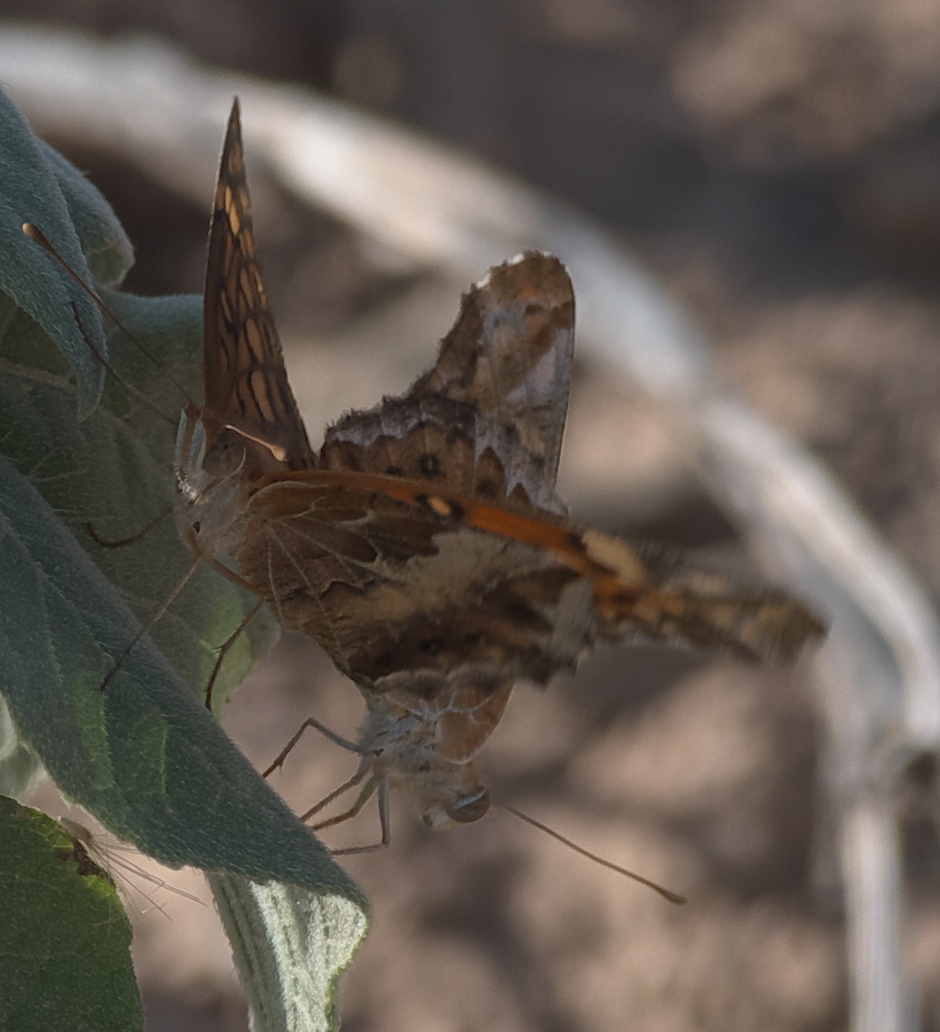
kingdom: Animalia
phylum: Arthropoda
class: Insecta
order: Lepidoptera
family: Nymphalidae
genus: Euptoieta
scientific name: Euptoieta claudia
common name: Variegated fritillary
